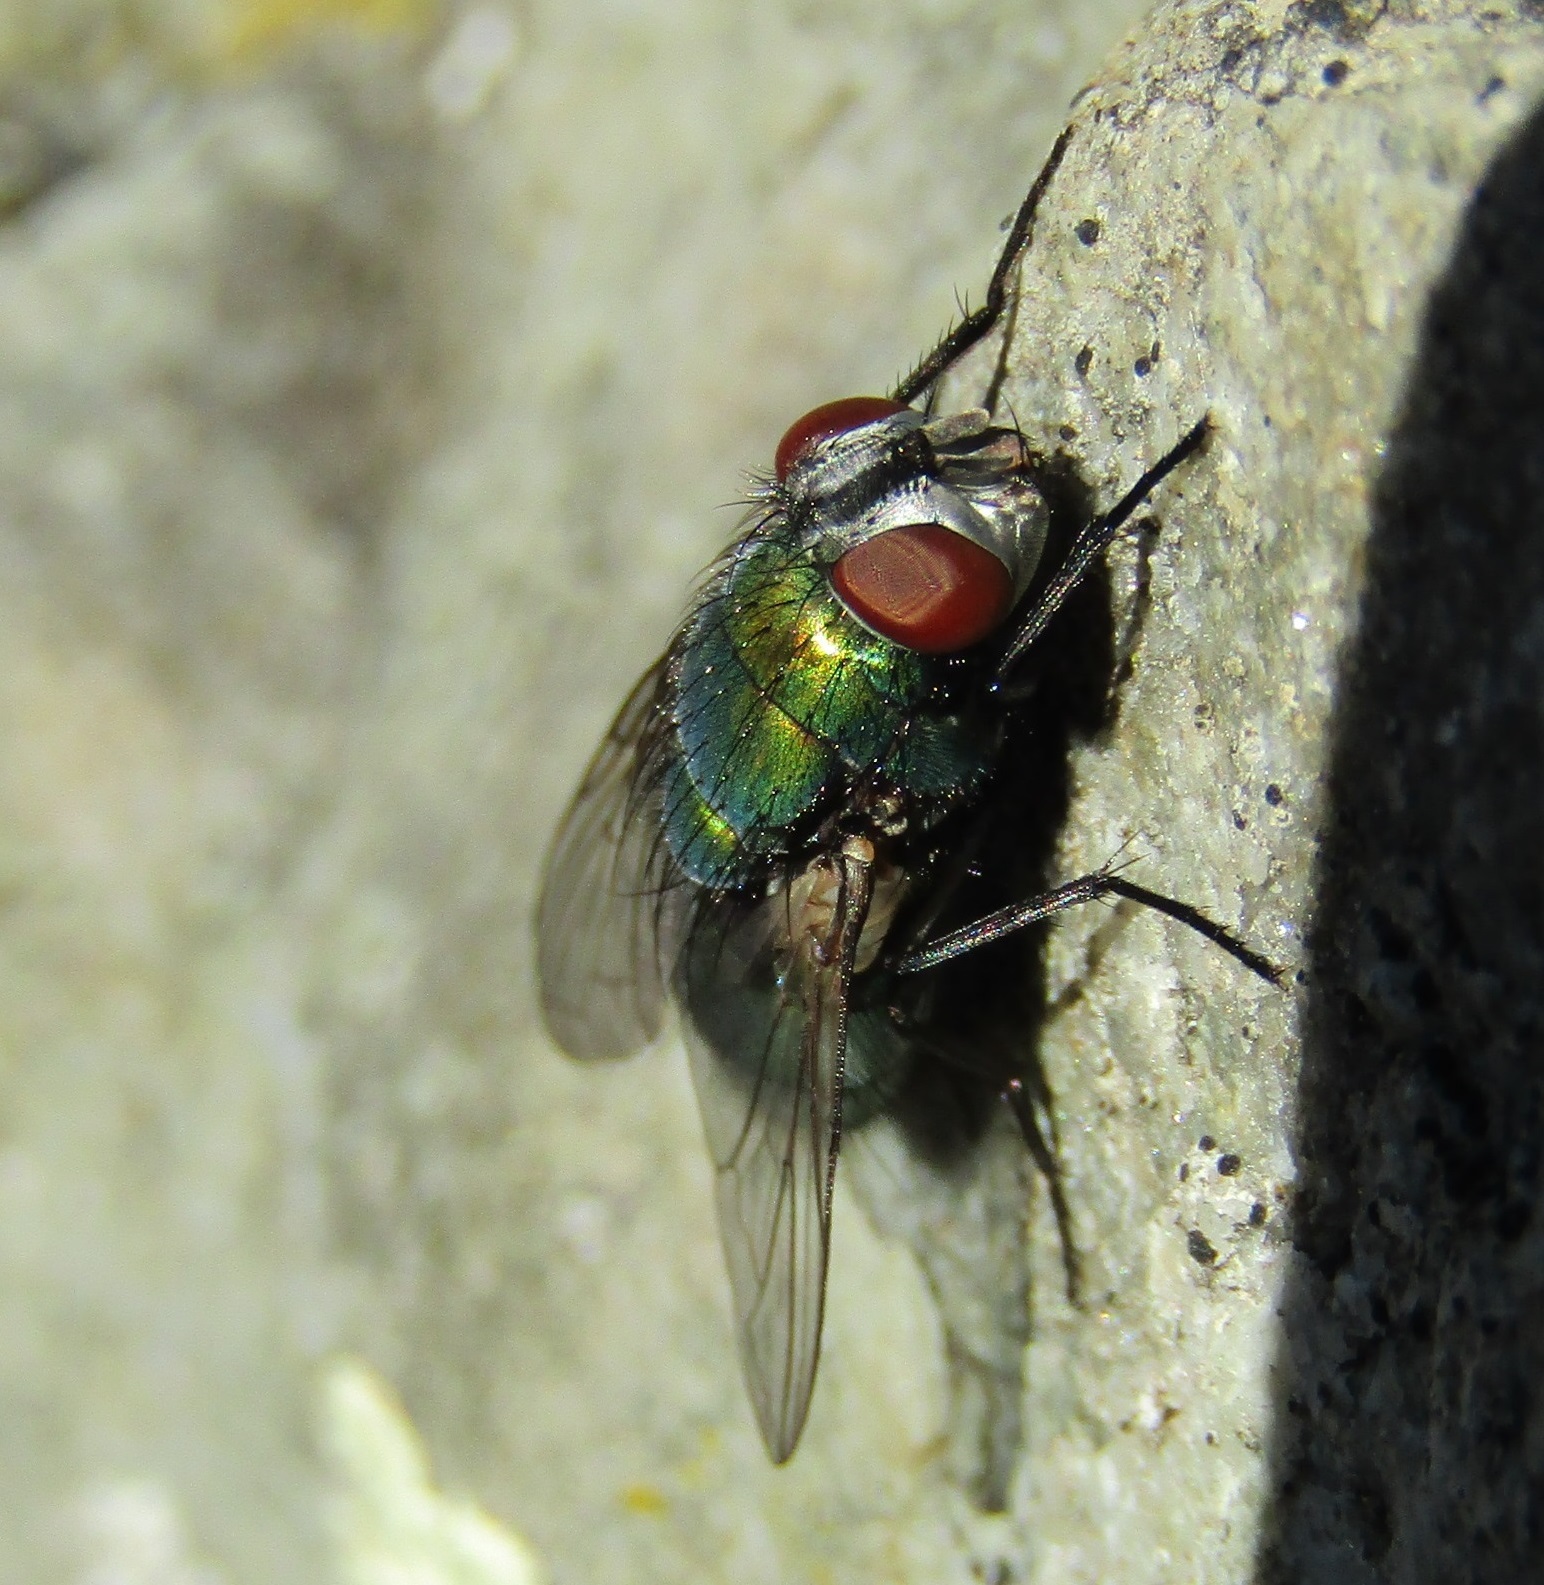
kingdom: Animalia
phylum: Arthropoda
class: Insecta
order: Diptera
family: Calliphoridae
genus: Lucilia
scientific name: Lucilia sericata
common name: Blow fly
